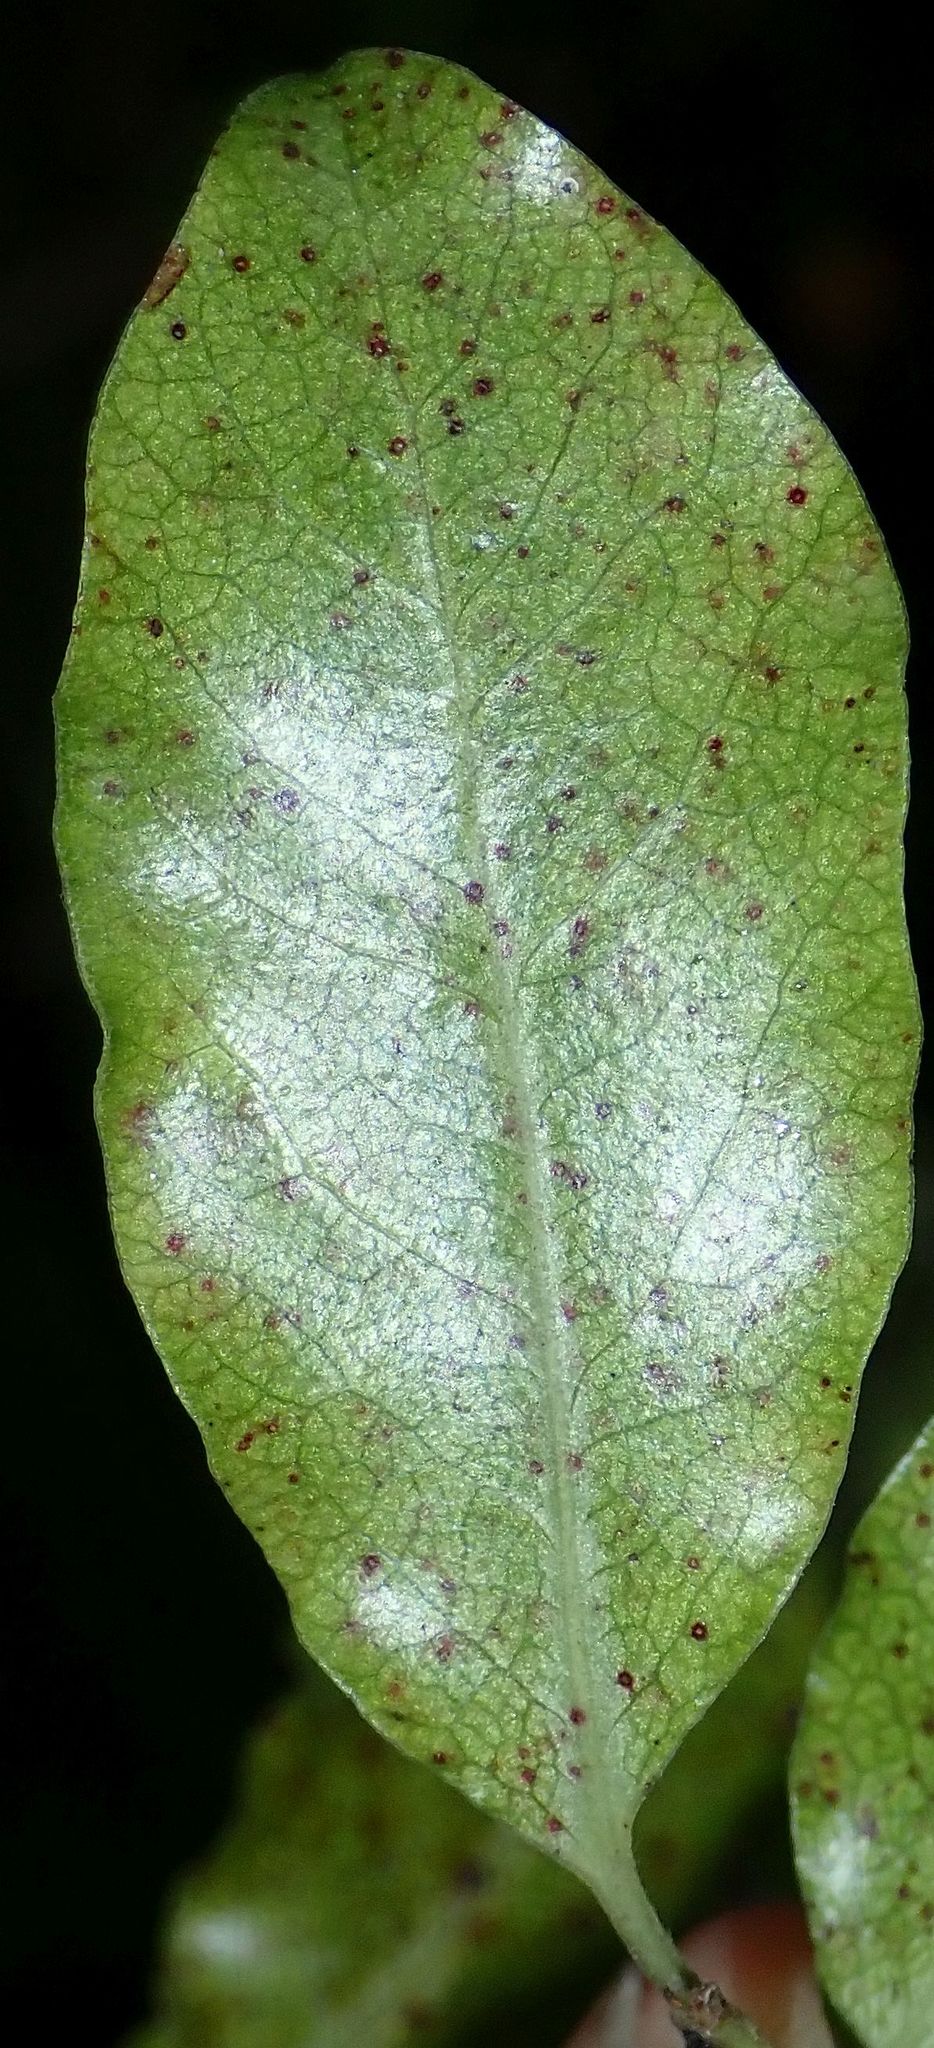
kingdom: Plantae
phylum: Tracheophyta
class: Magnoliopsida
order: Apiales
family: Pittosporaceae
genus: Pittosporum
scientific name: Pittosporum tenuifolium
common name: Kohuhu
